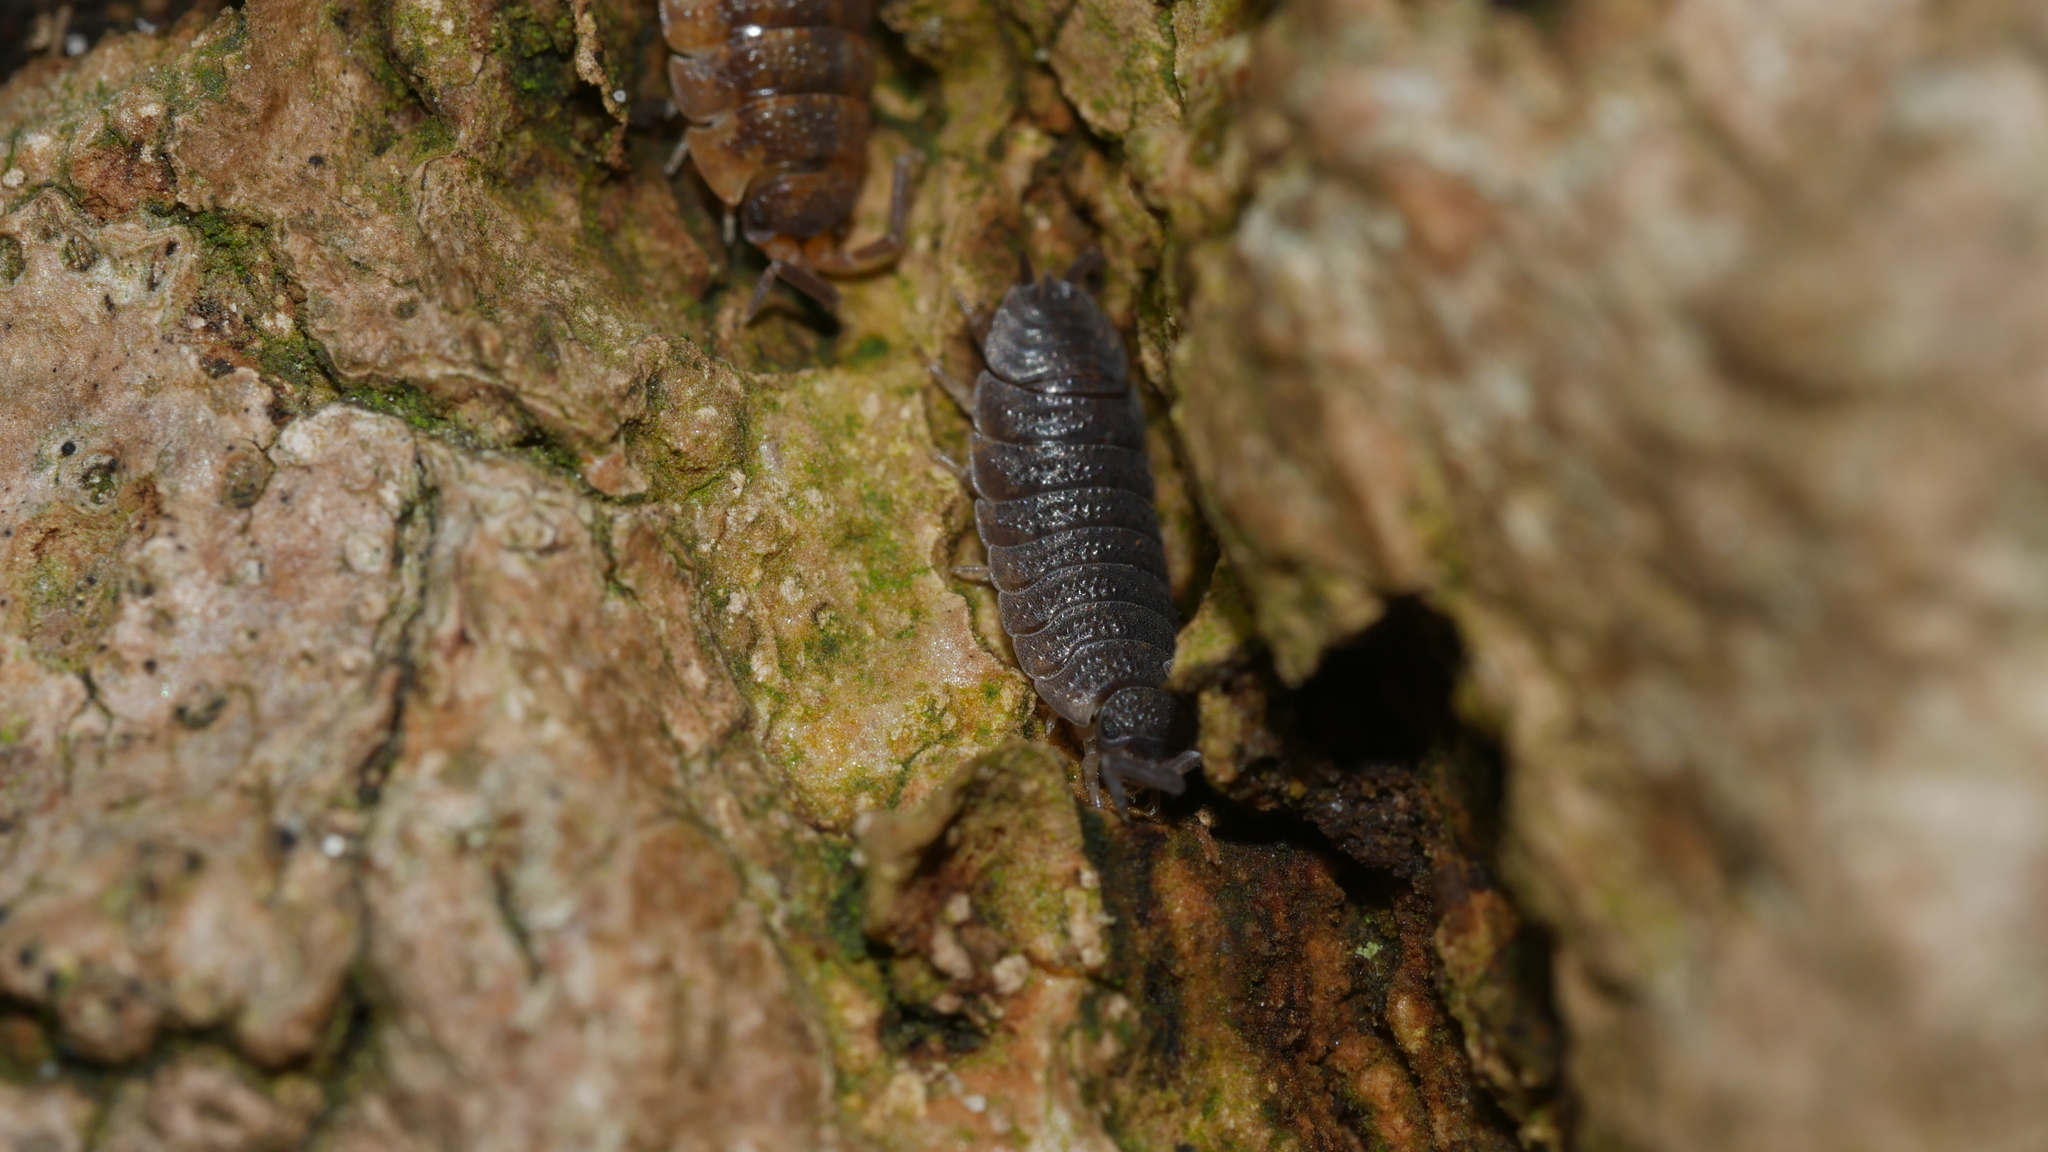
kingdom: Animalia
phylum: Arthropoda
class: Malacostraca
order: Isopoda
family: Porcellionidae
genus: Porcellio
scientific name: Porcellio scaber
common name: Common rough woodlouse
